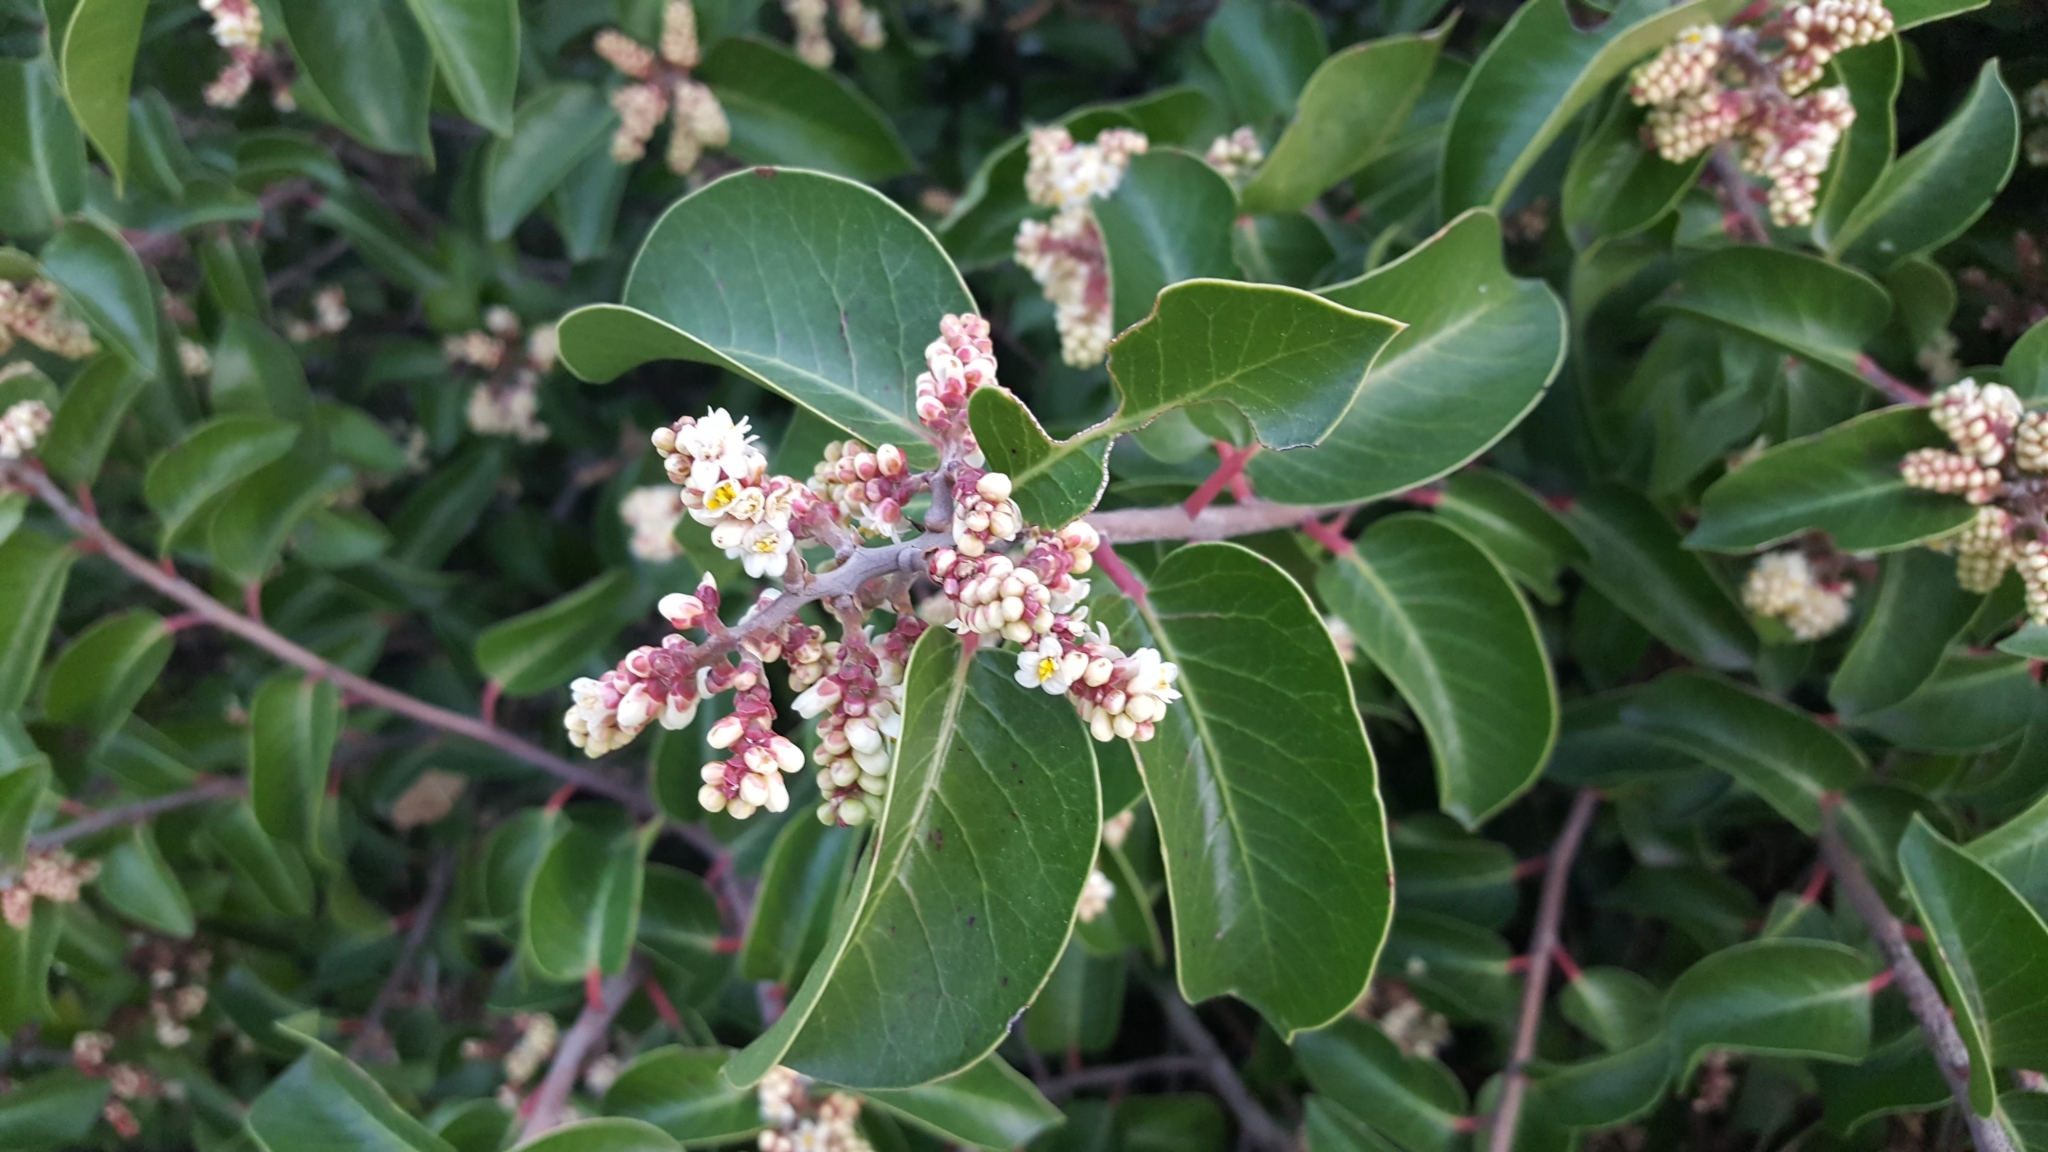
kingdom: Plantae
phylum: Tracheophyta
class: Magnoliopsida
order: Sapindales
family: Anacardiaceae
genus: Rhus
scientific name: Rhus ovata
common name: Sugar sumac
